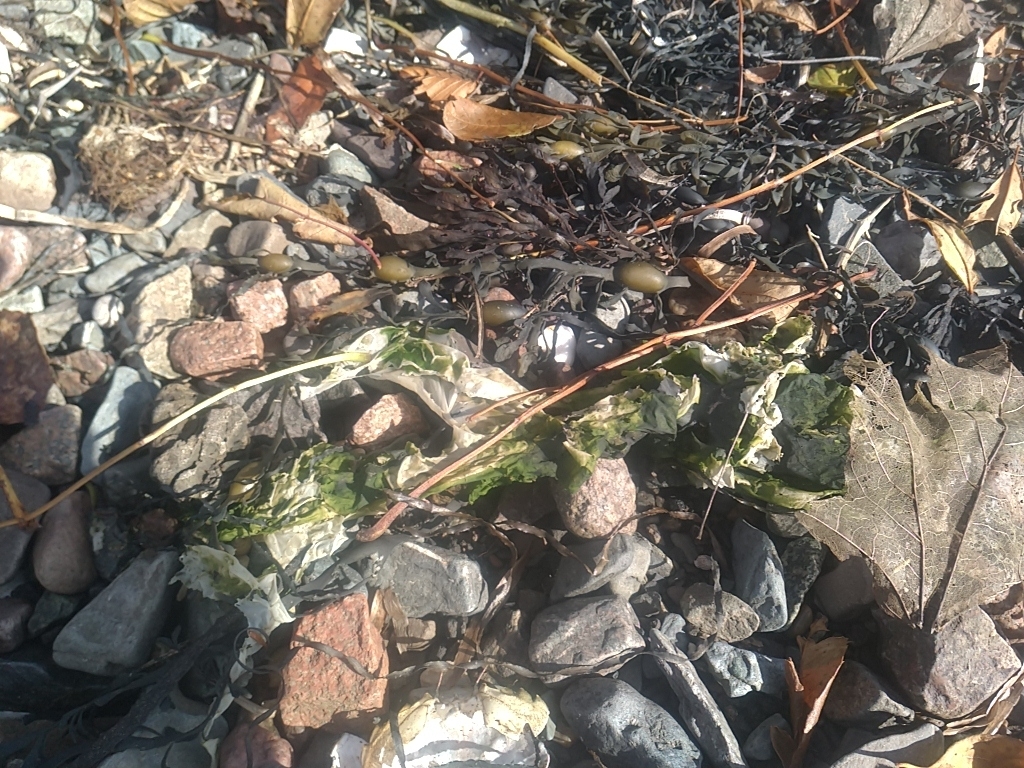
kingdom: Plantae
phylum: Chlorophyta
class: Ulvophyceae
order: Ulvales
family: Ulvaceae
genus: Ulva
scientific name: Ulva lactuca
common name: Sea lettuce
